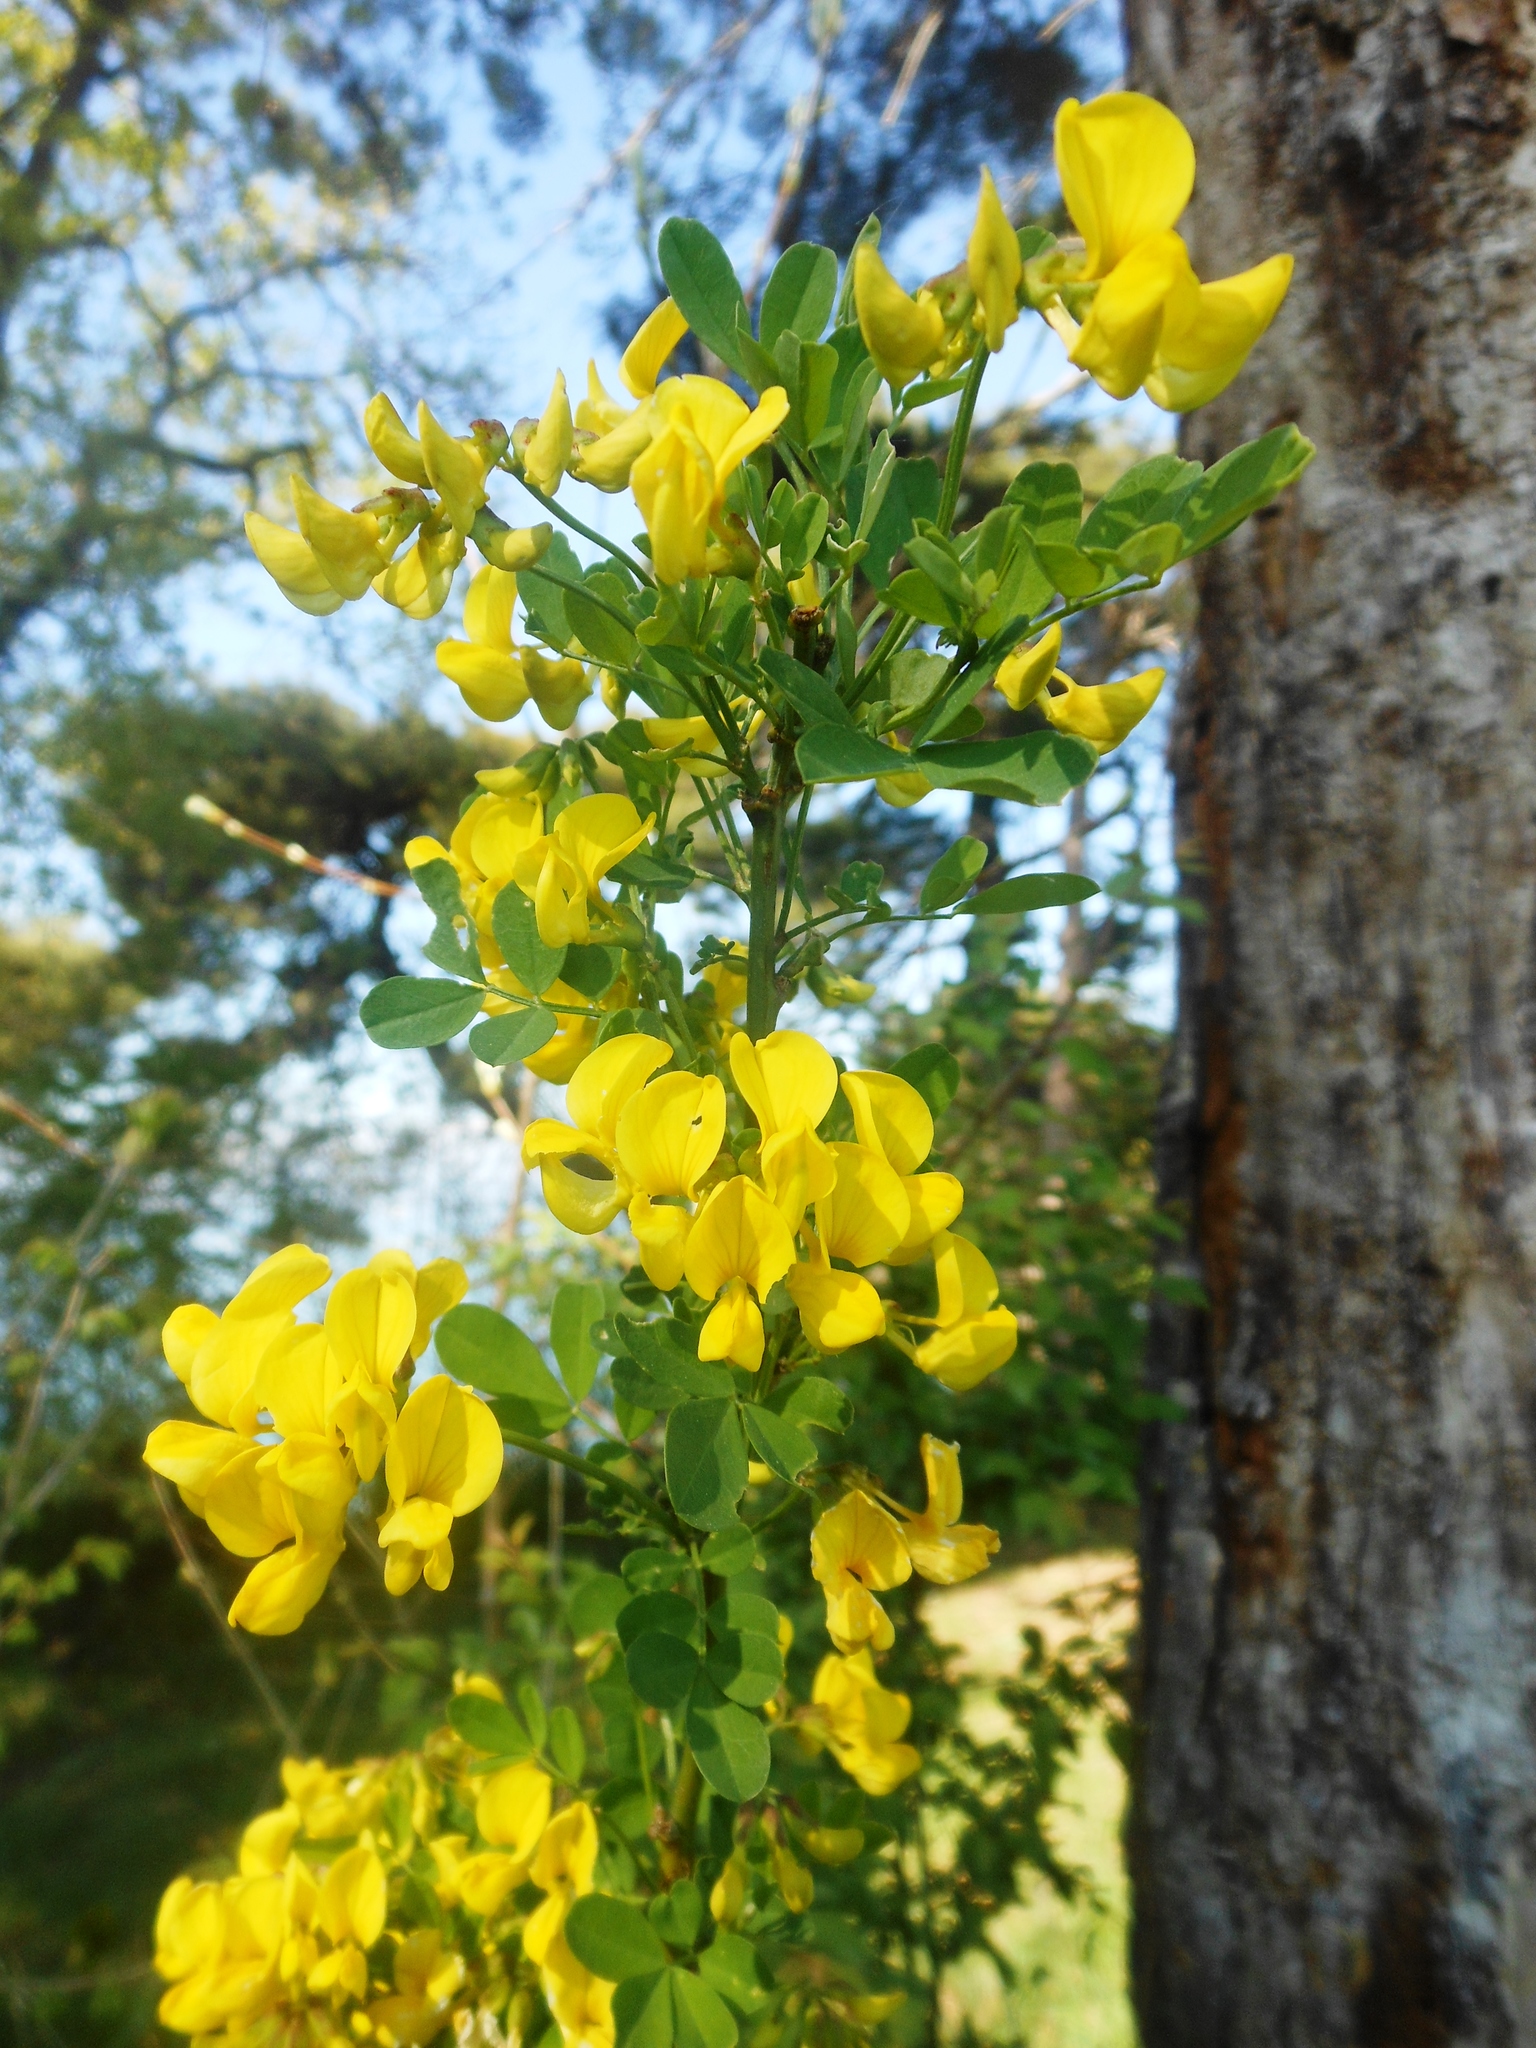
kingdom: Plantae
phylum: Tracheophyta
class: Magnoliopsida
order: Fabales
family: Fabaceae
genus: Hippocrepis
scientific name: Hippocrepis emerus
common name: Scorpion senna
